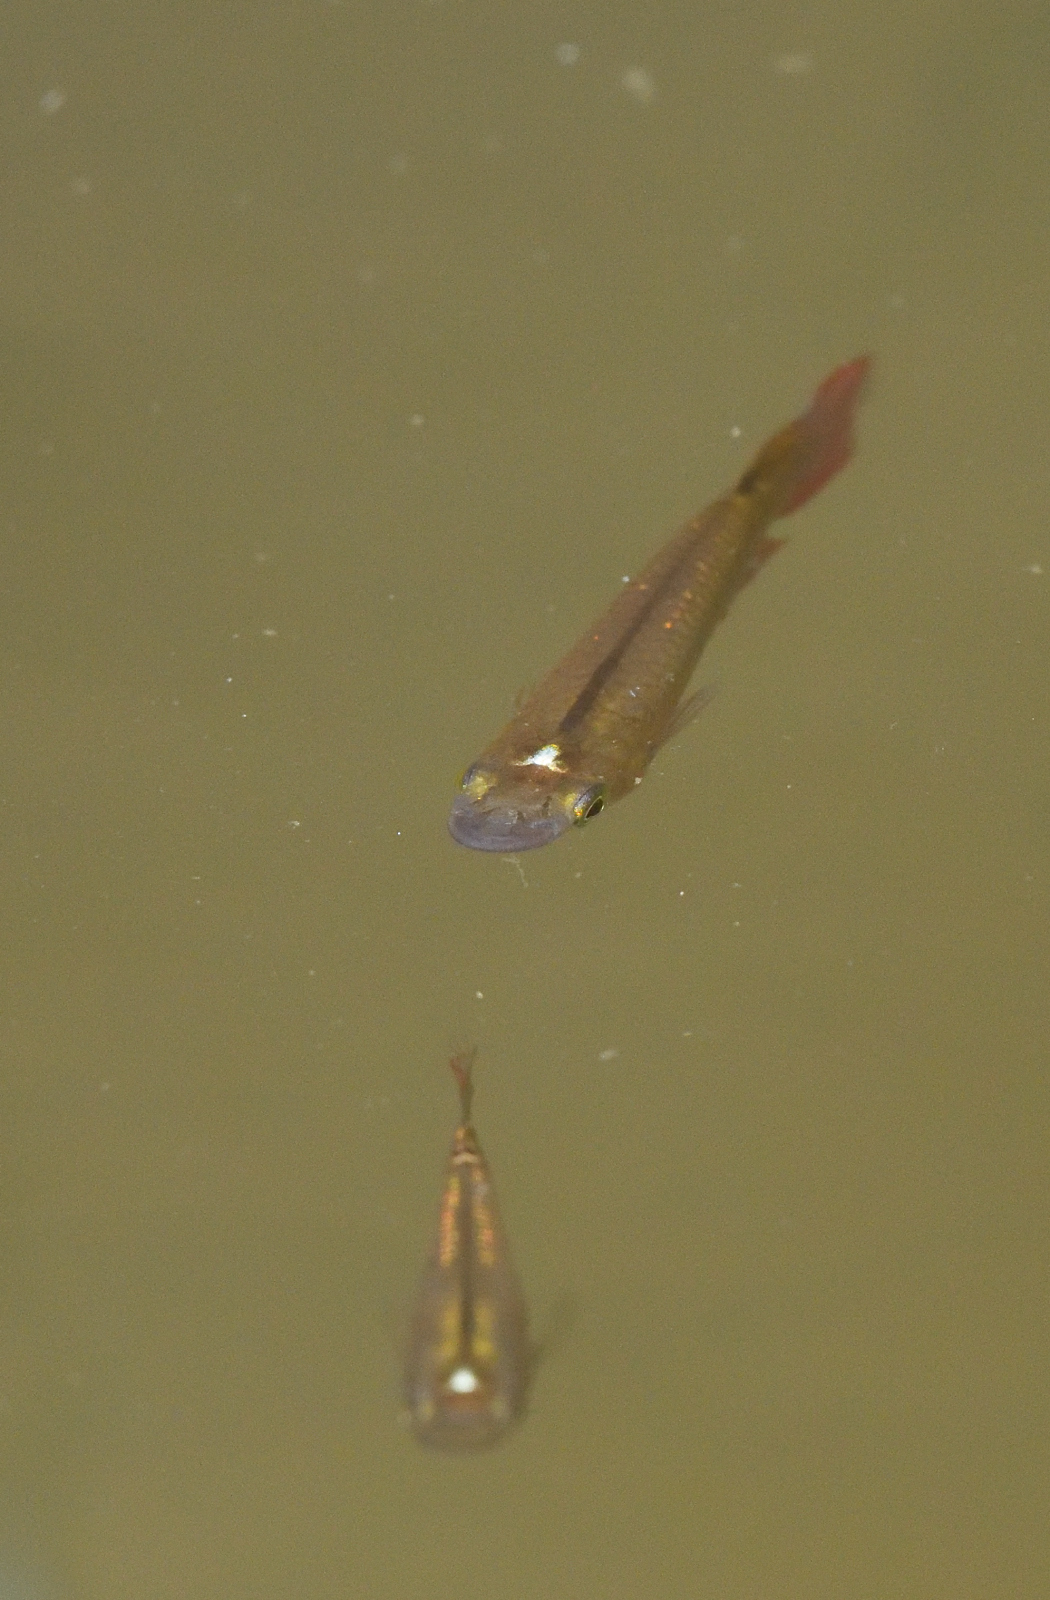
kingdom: Animalia
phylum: Chordata
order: Cyprinodontiformes
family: Aplocheilidae
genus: Aplocheilus
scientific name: Aplocheilus lineatus
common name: Striped panchax
